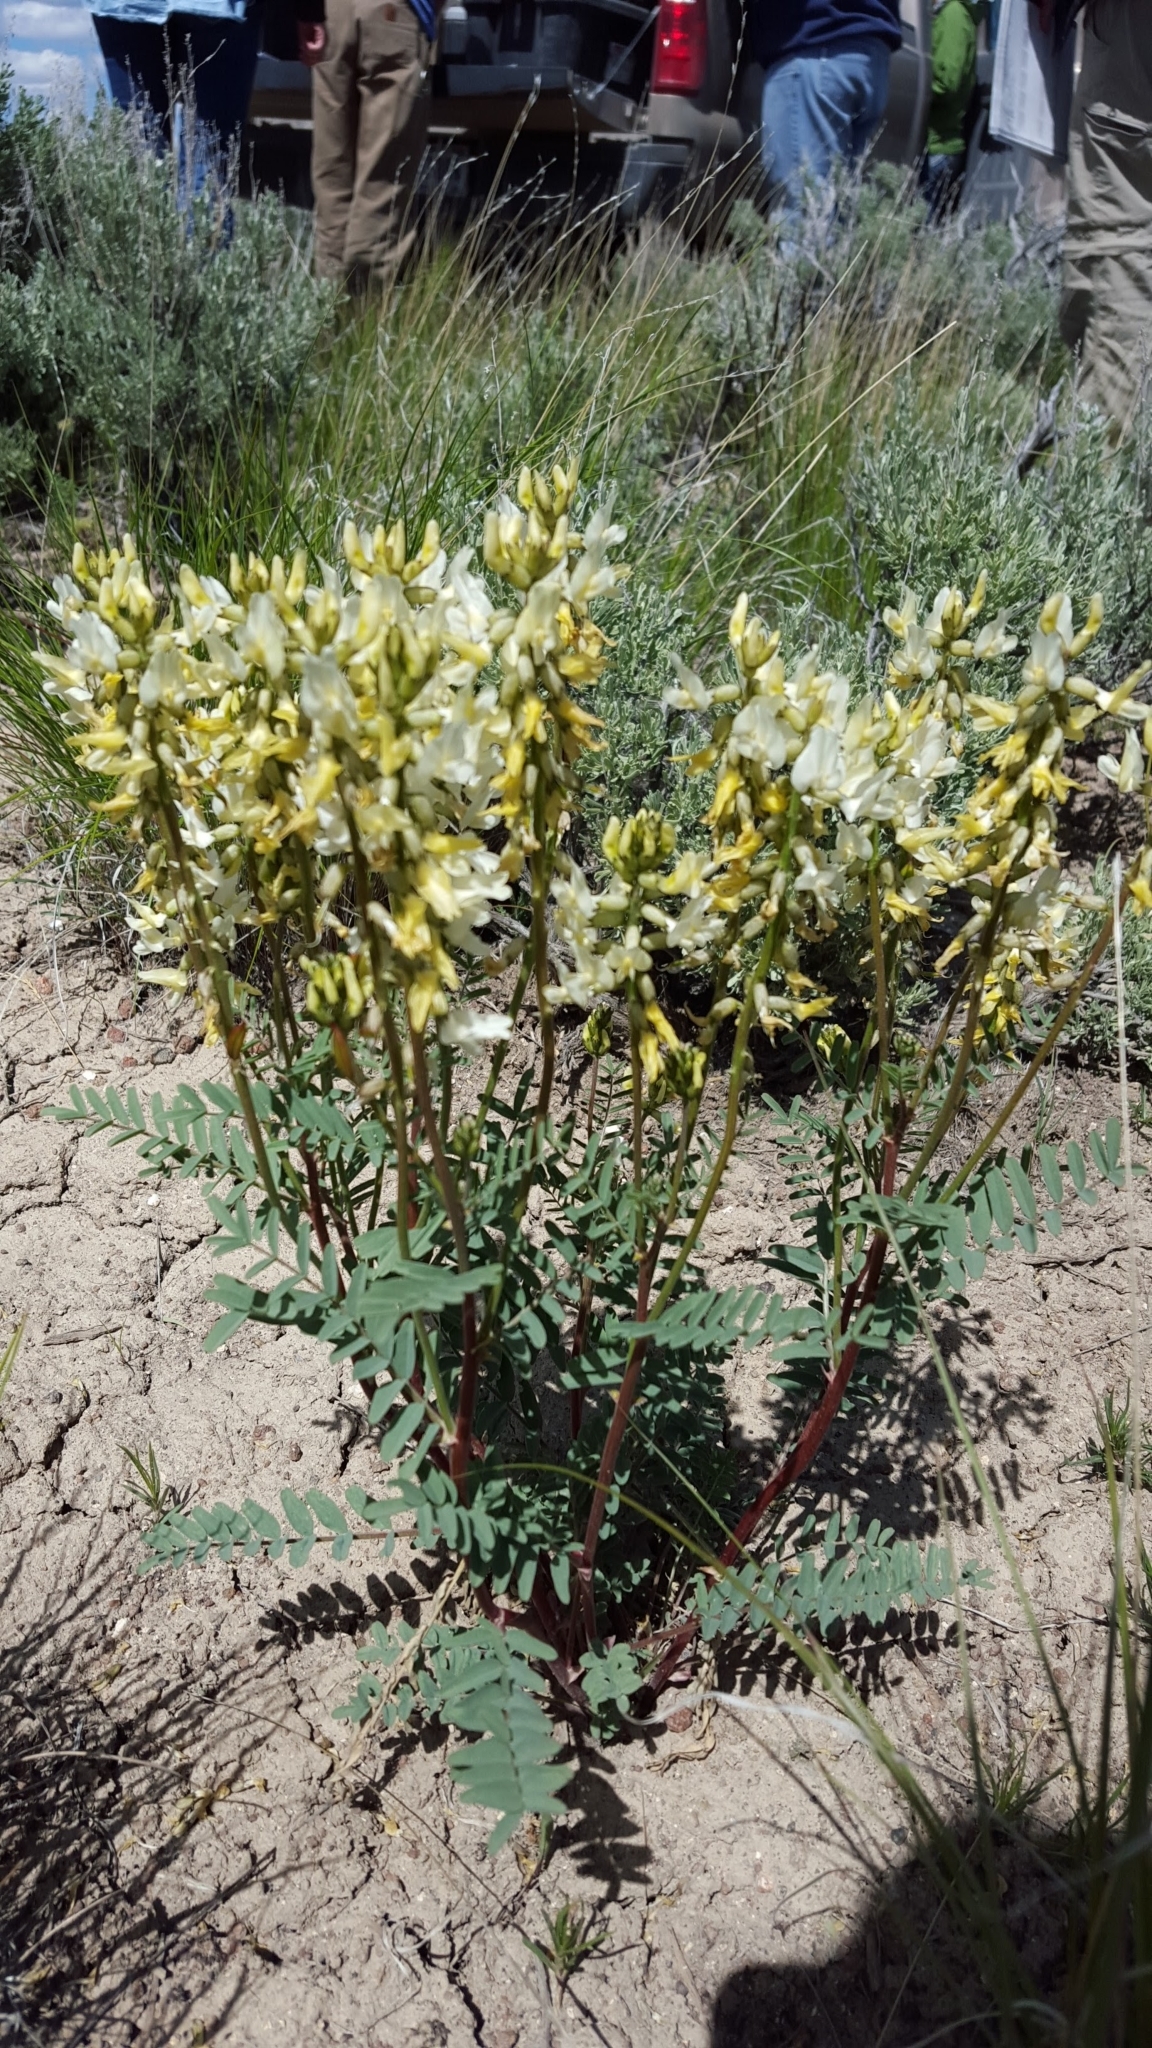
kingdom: Plantae
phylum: Tracheophyta
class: Magnoliopsida
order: Fabales
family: Fabaceae
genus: Astragalus
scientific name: Astragalus eremiticus
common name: Hermit milk-vetch
